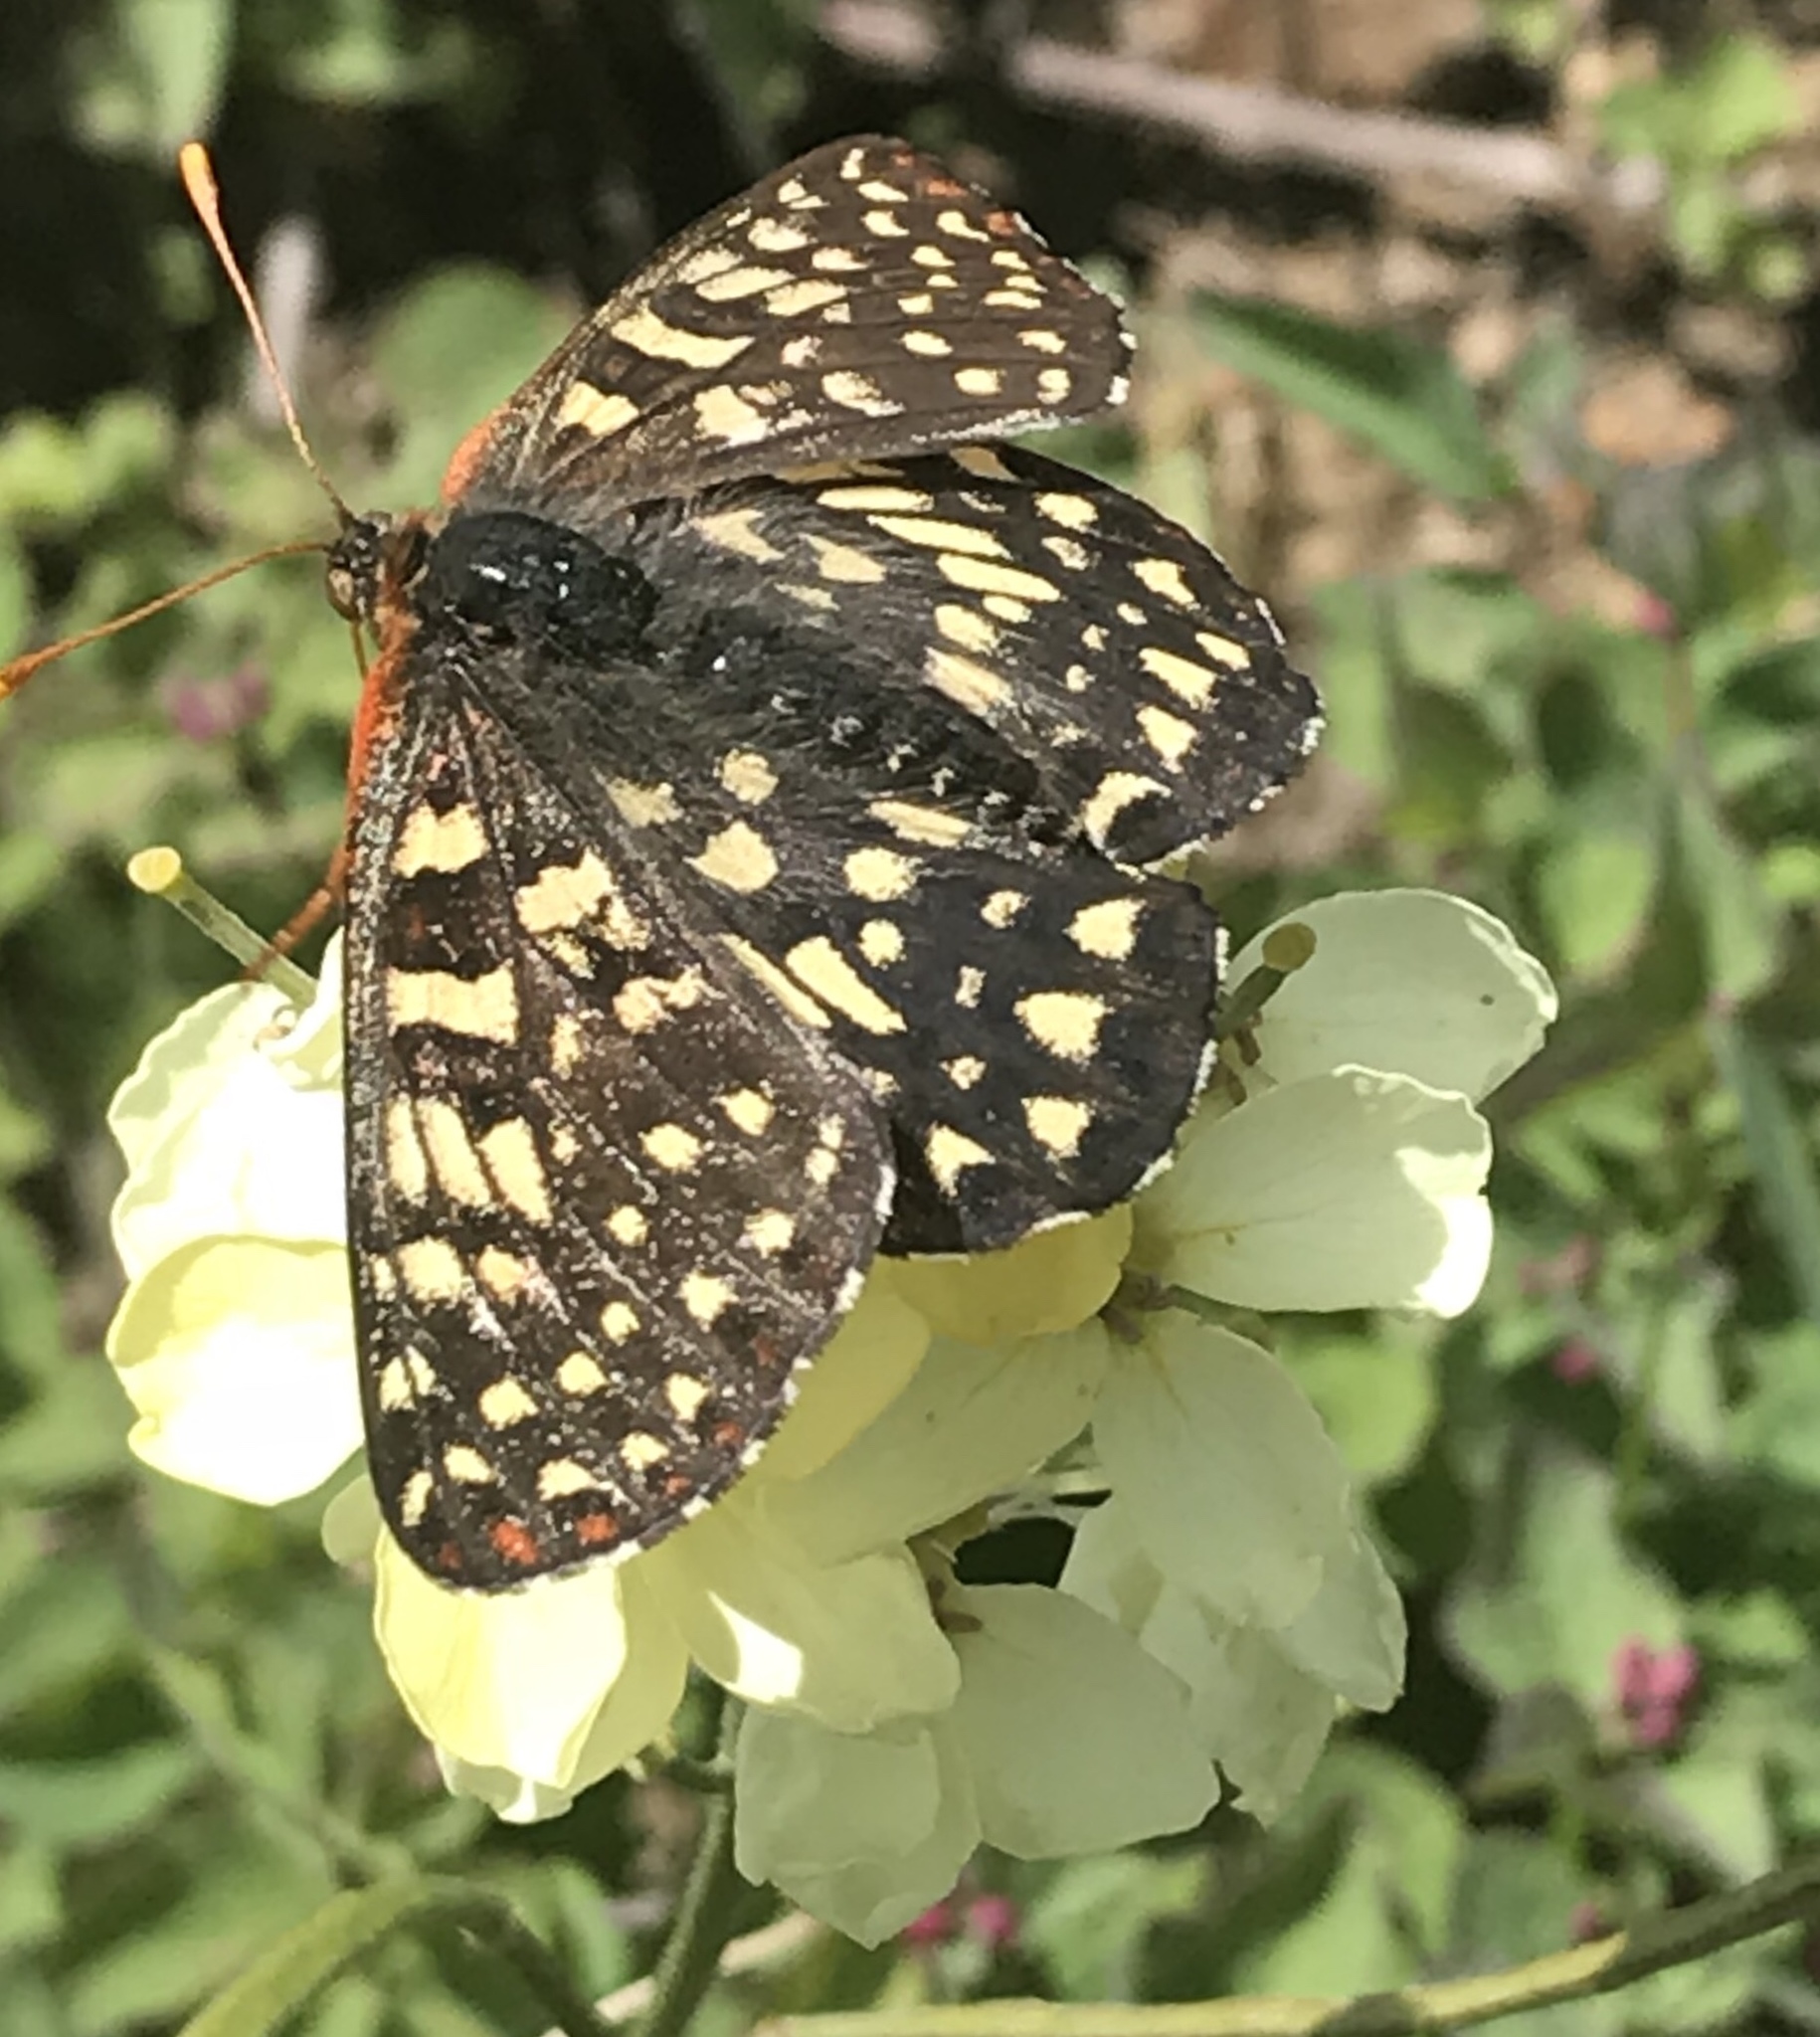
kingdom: Animalia
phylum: Arthropoda
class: Insecta
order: Lepidoptera
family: Nymphalidae
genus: Occidryas
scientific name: Occidryas chalcedona
